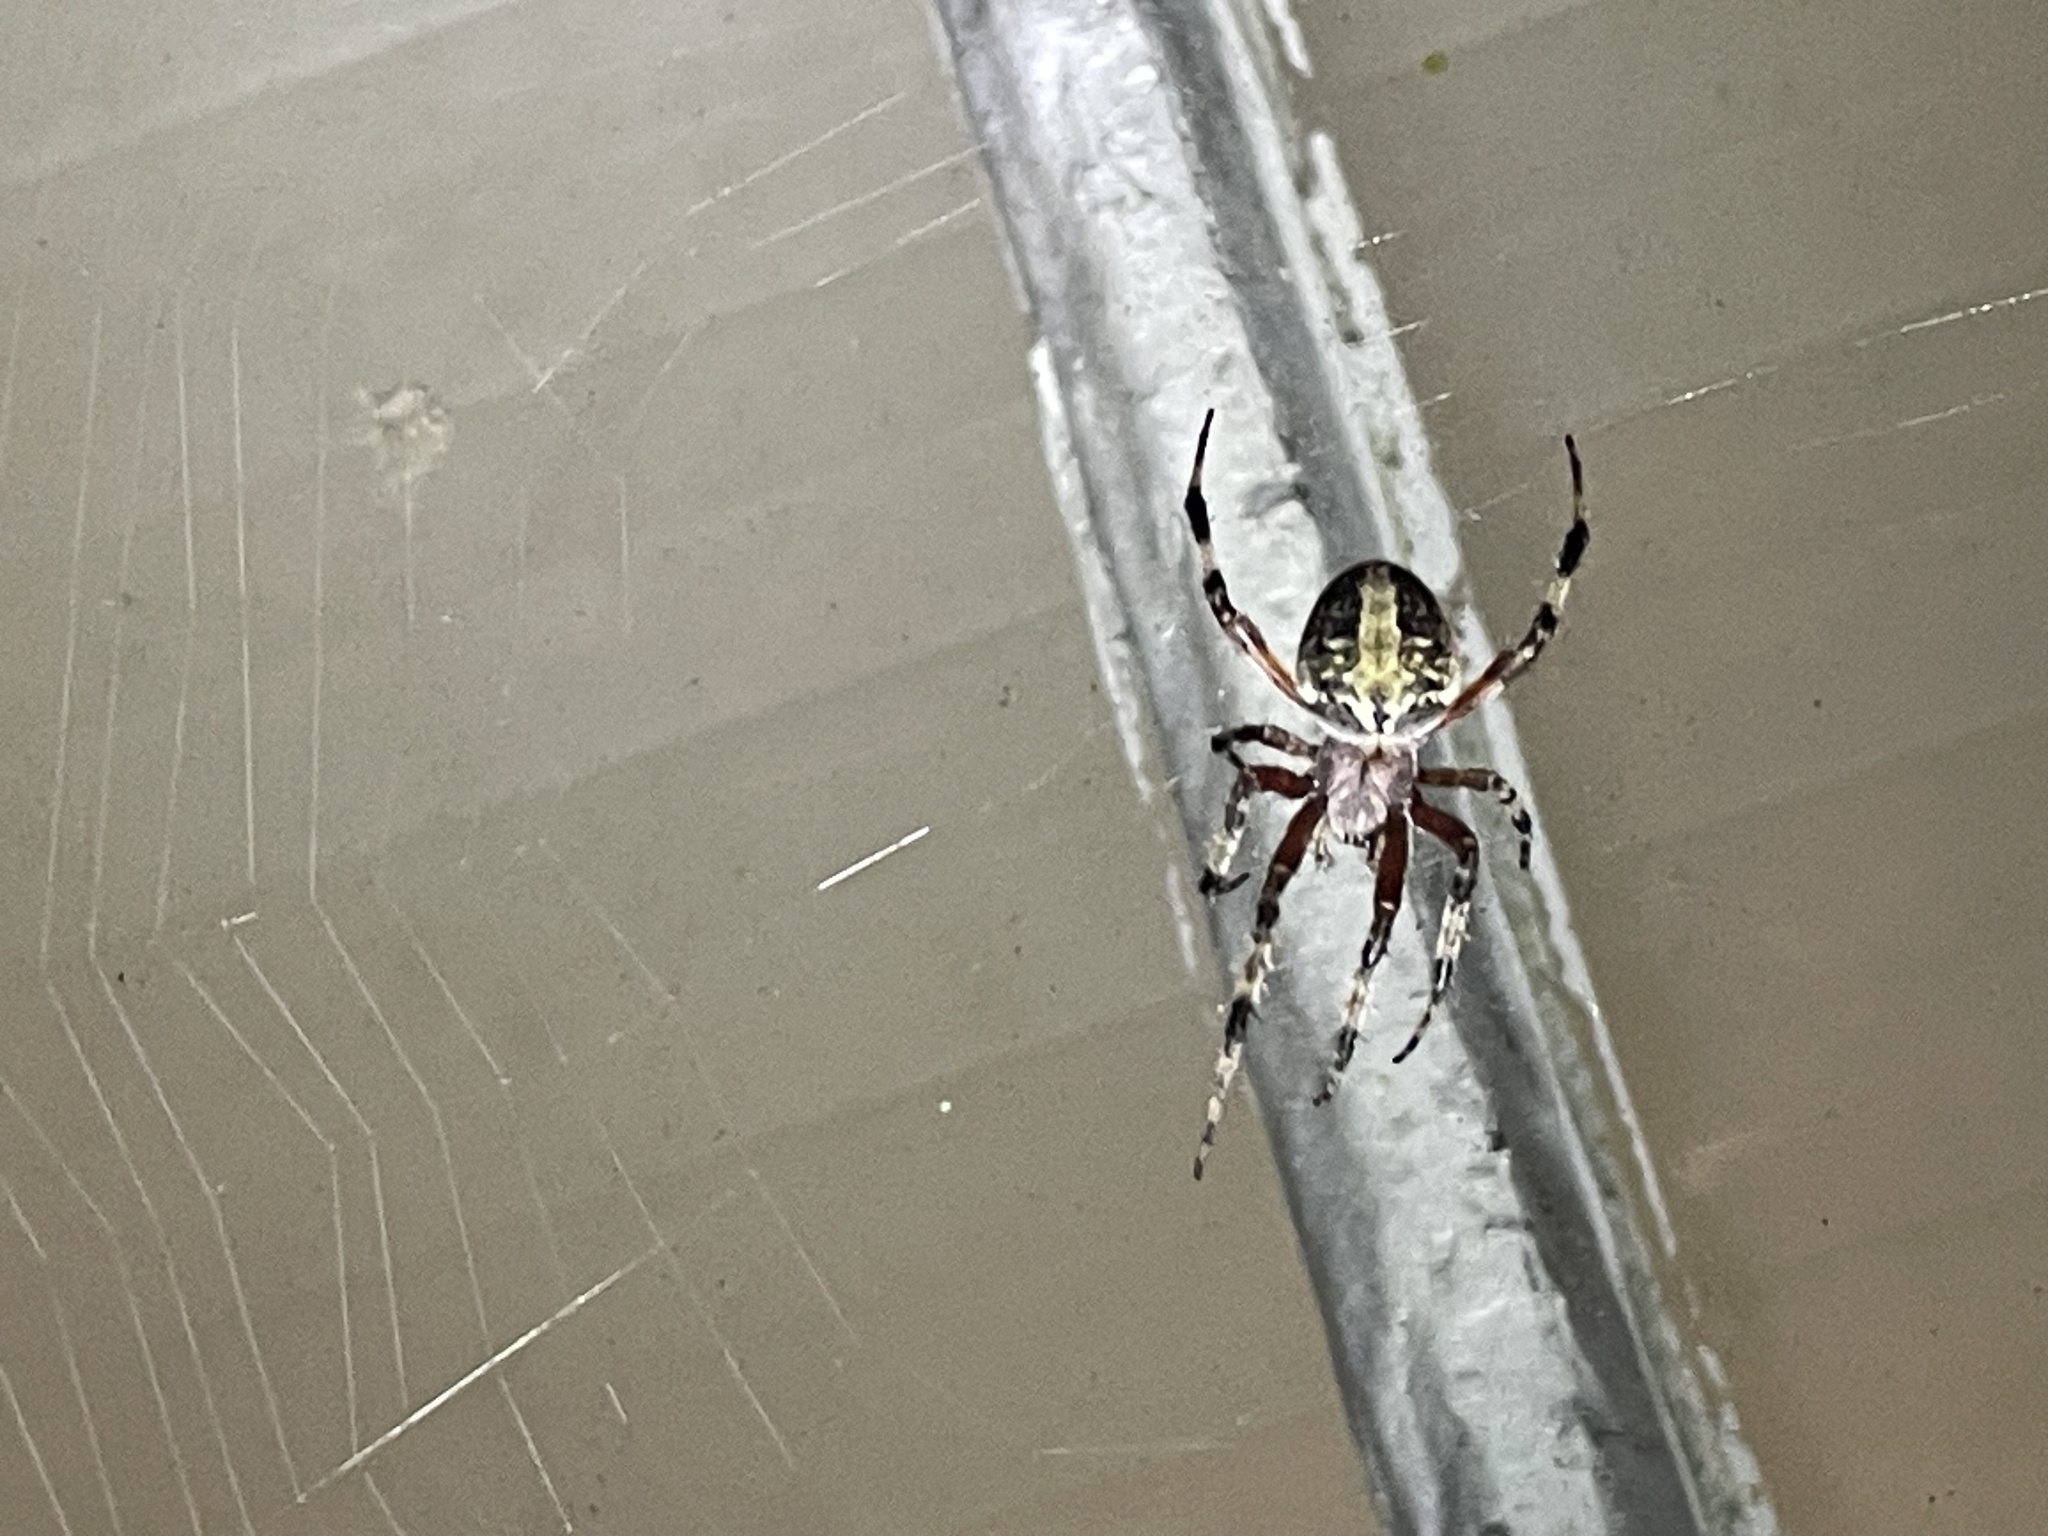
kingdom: Animalia
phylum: Arthropoda
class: Arachnida
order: Araneae
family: Araneidae
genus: Neoscona
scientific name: Neoscona domiciliorum
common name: Red-femured spotted orbweaver
